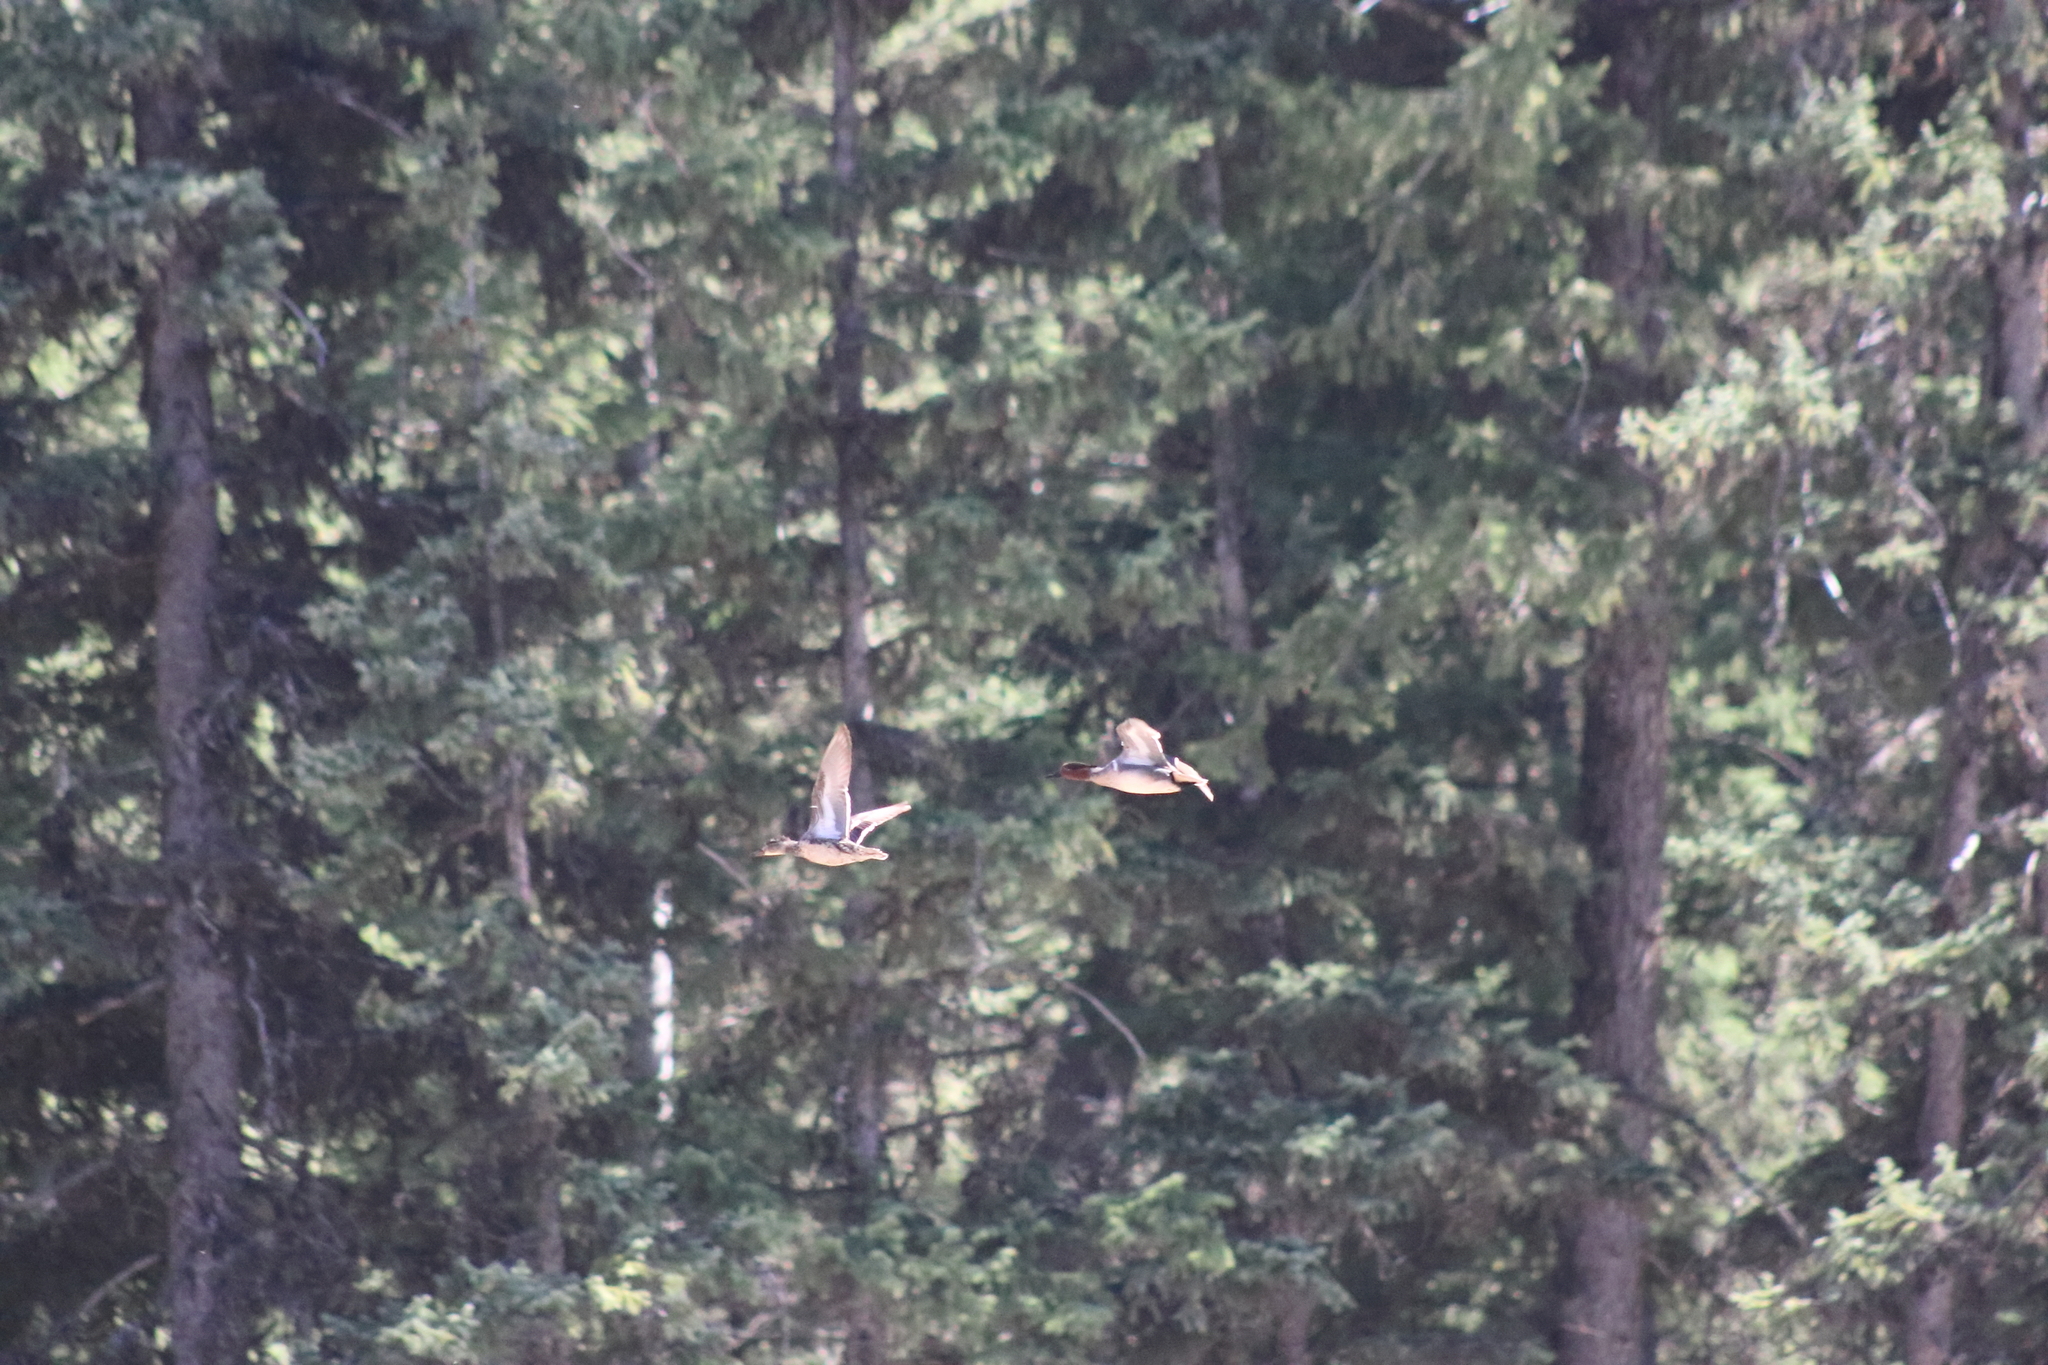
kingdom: Animalia
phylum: Chordata
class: Aves
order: Anseriformes
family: Anatidae
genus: Anas
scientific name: Anas crecca
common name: Eurasian teal
